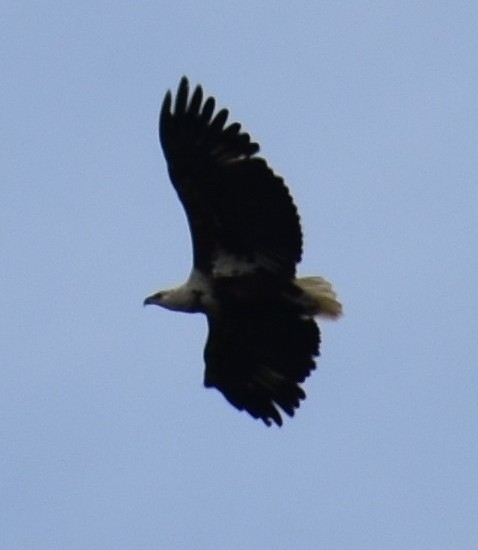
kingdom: Animalia
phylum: Chordata
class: Aves
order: Accipitriformes
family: Accipitridae
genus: Haliaeetus
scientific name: Haliaeetus vocifer
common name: African fish eagle
